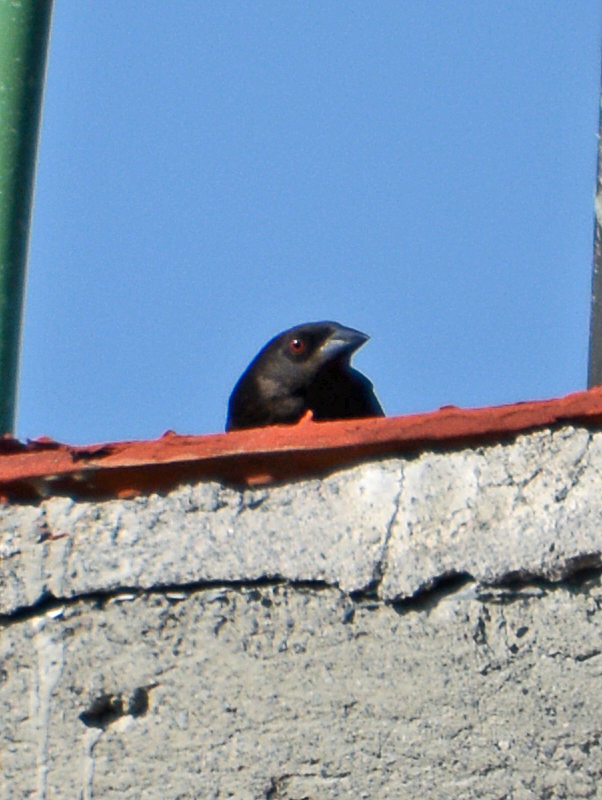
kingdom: Animalia
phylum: Chordata
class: Aves
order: Passeriformes
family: Icteridae
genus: Molothrus
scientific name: Molothrus aeneus
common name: Bronzed cowbird
